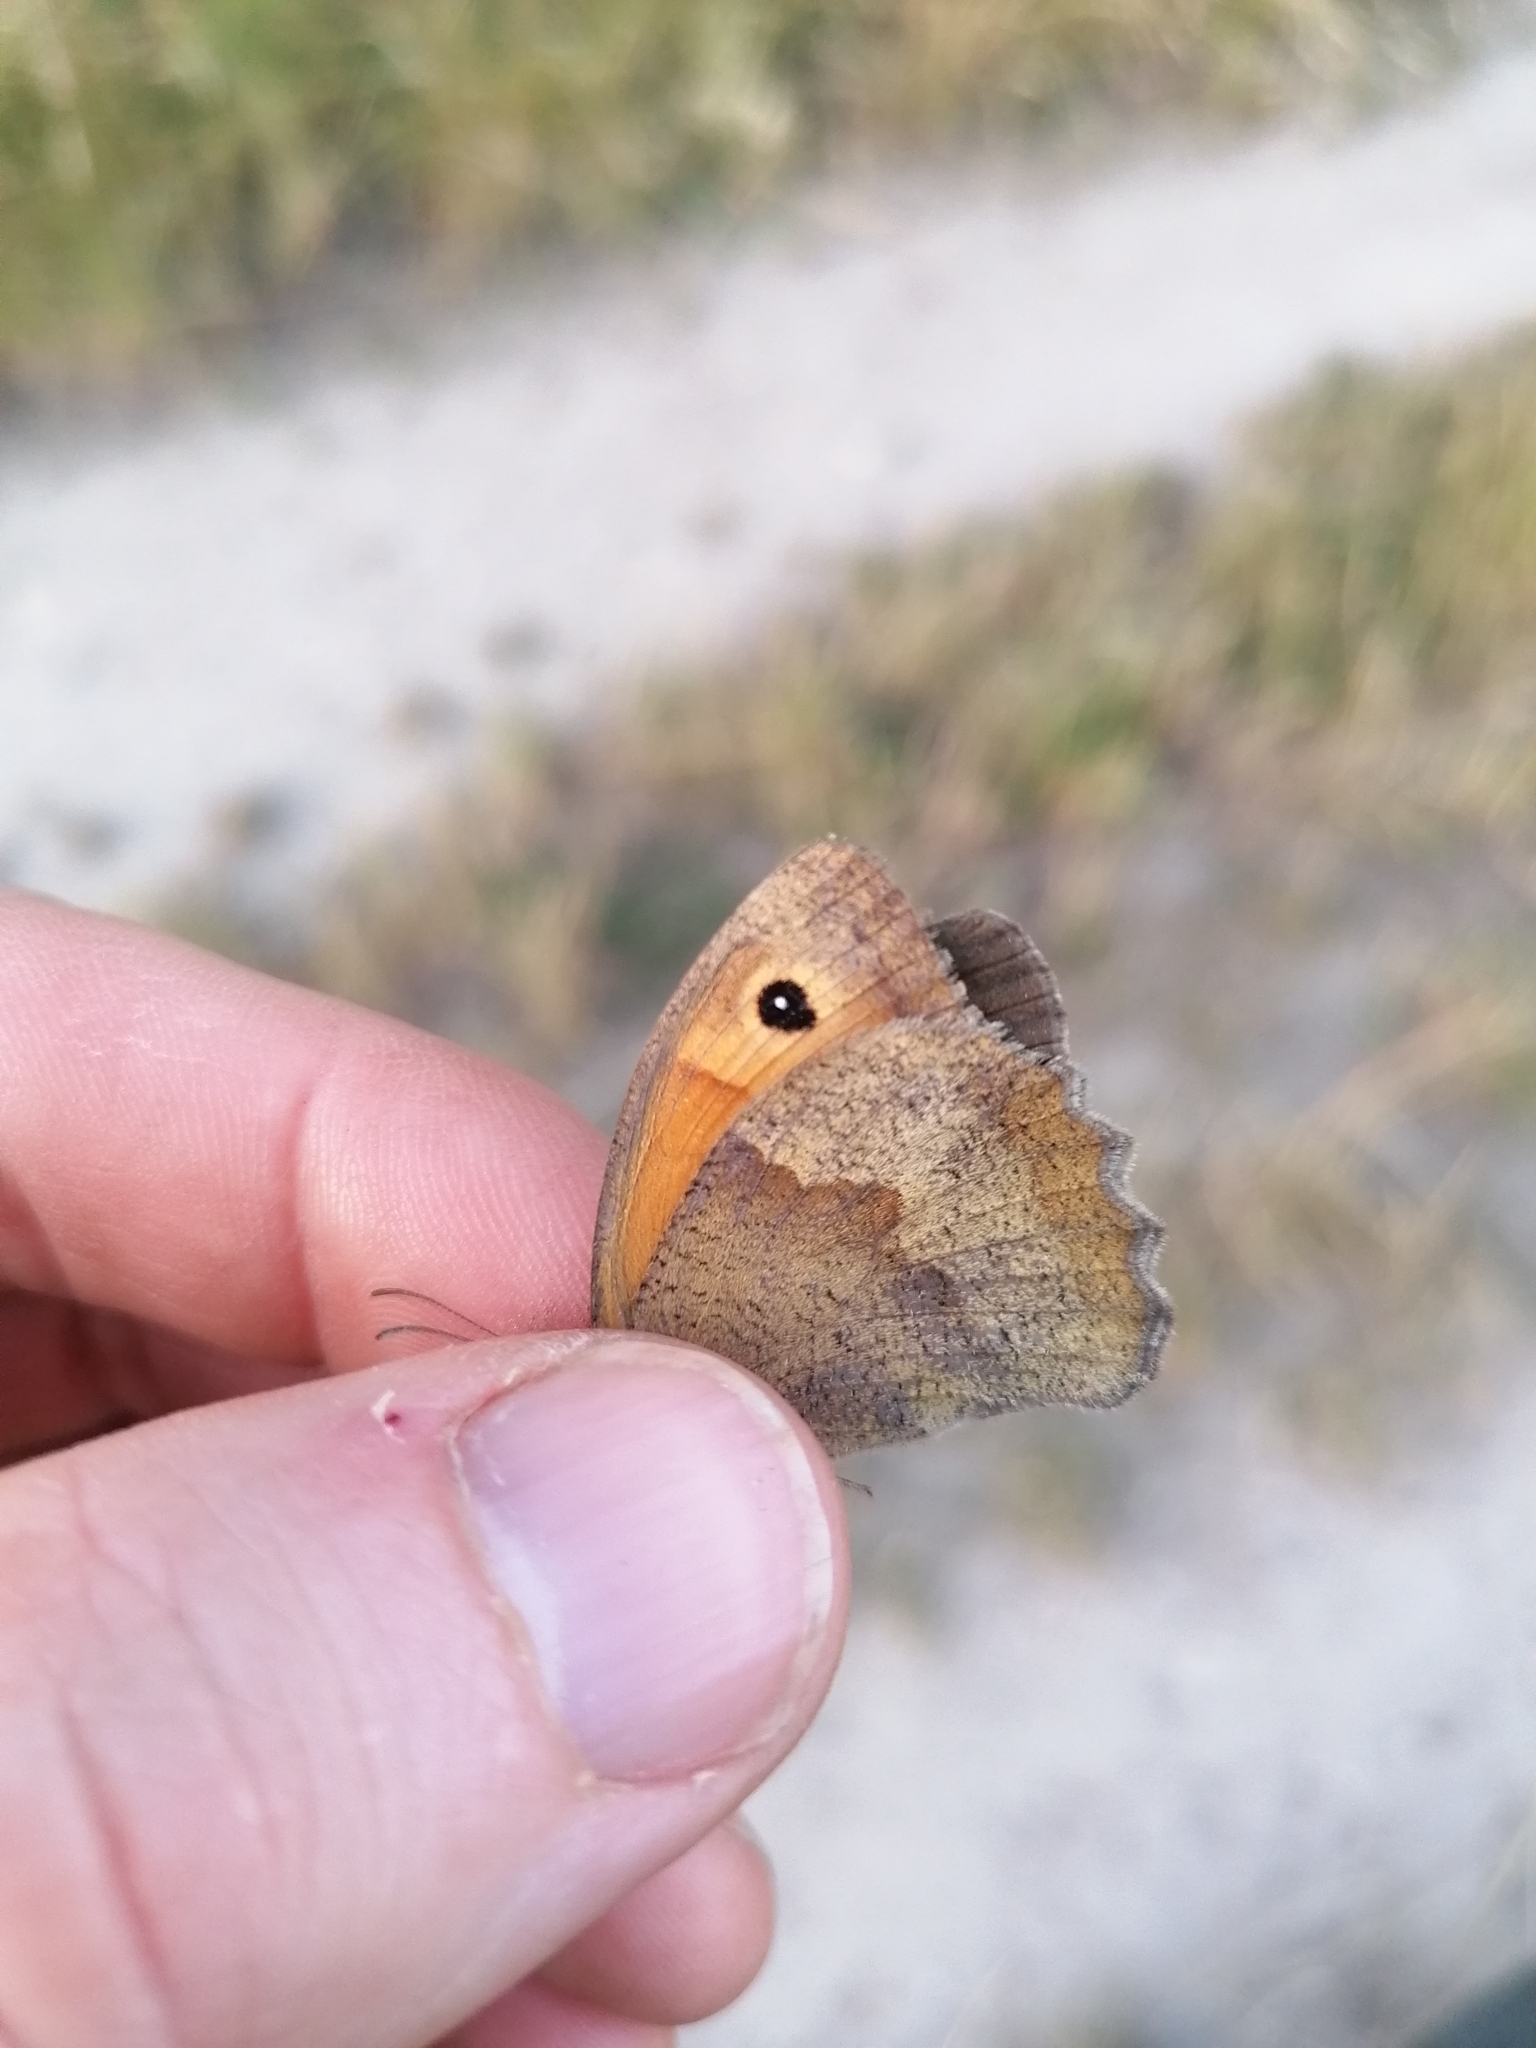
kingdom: Animalia
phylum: Arthropoda
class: Insecta
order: Lepidoptera
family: Nymphalidae
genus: Maniola
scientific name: Maniola jurtina
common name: Meadow brown
